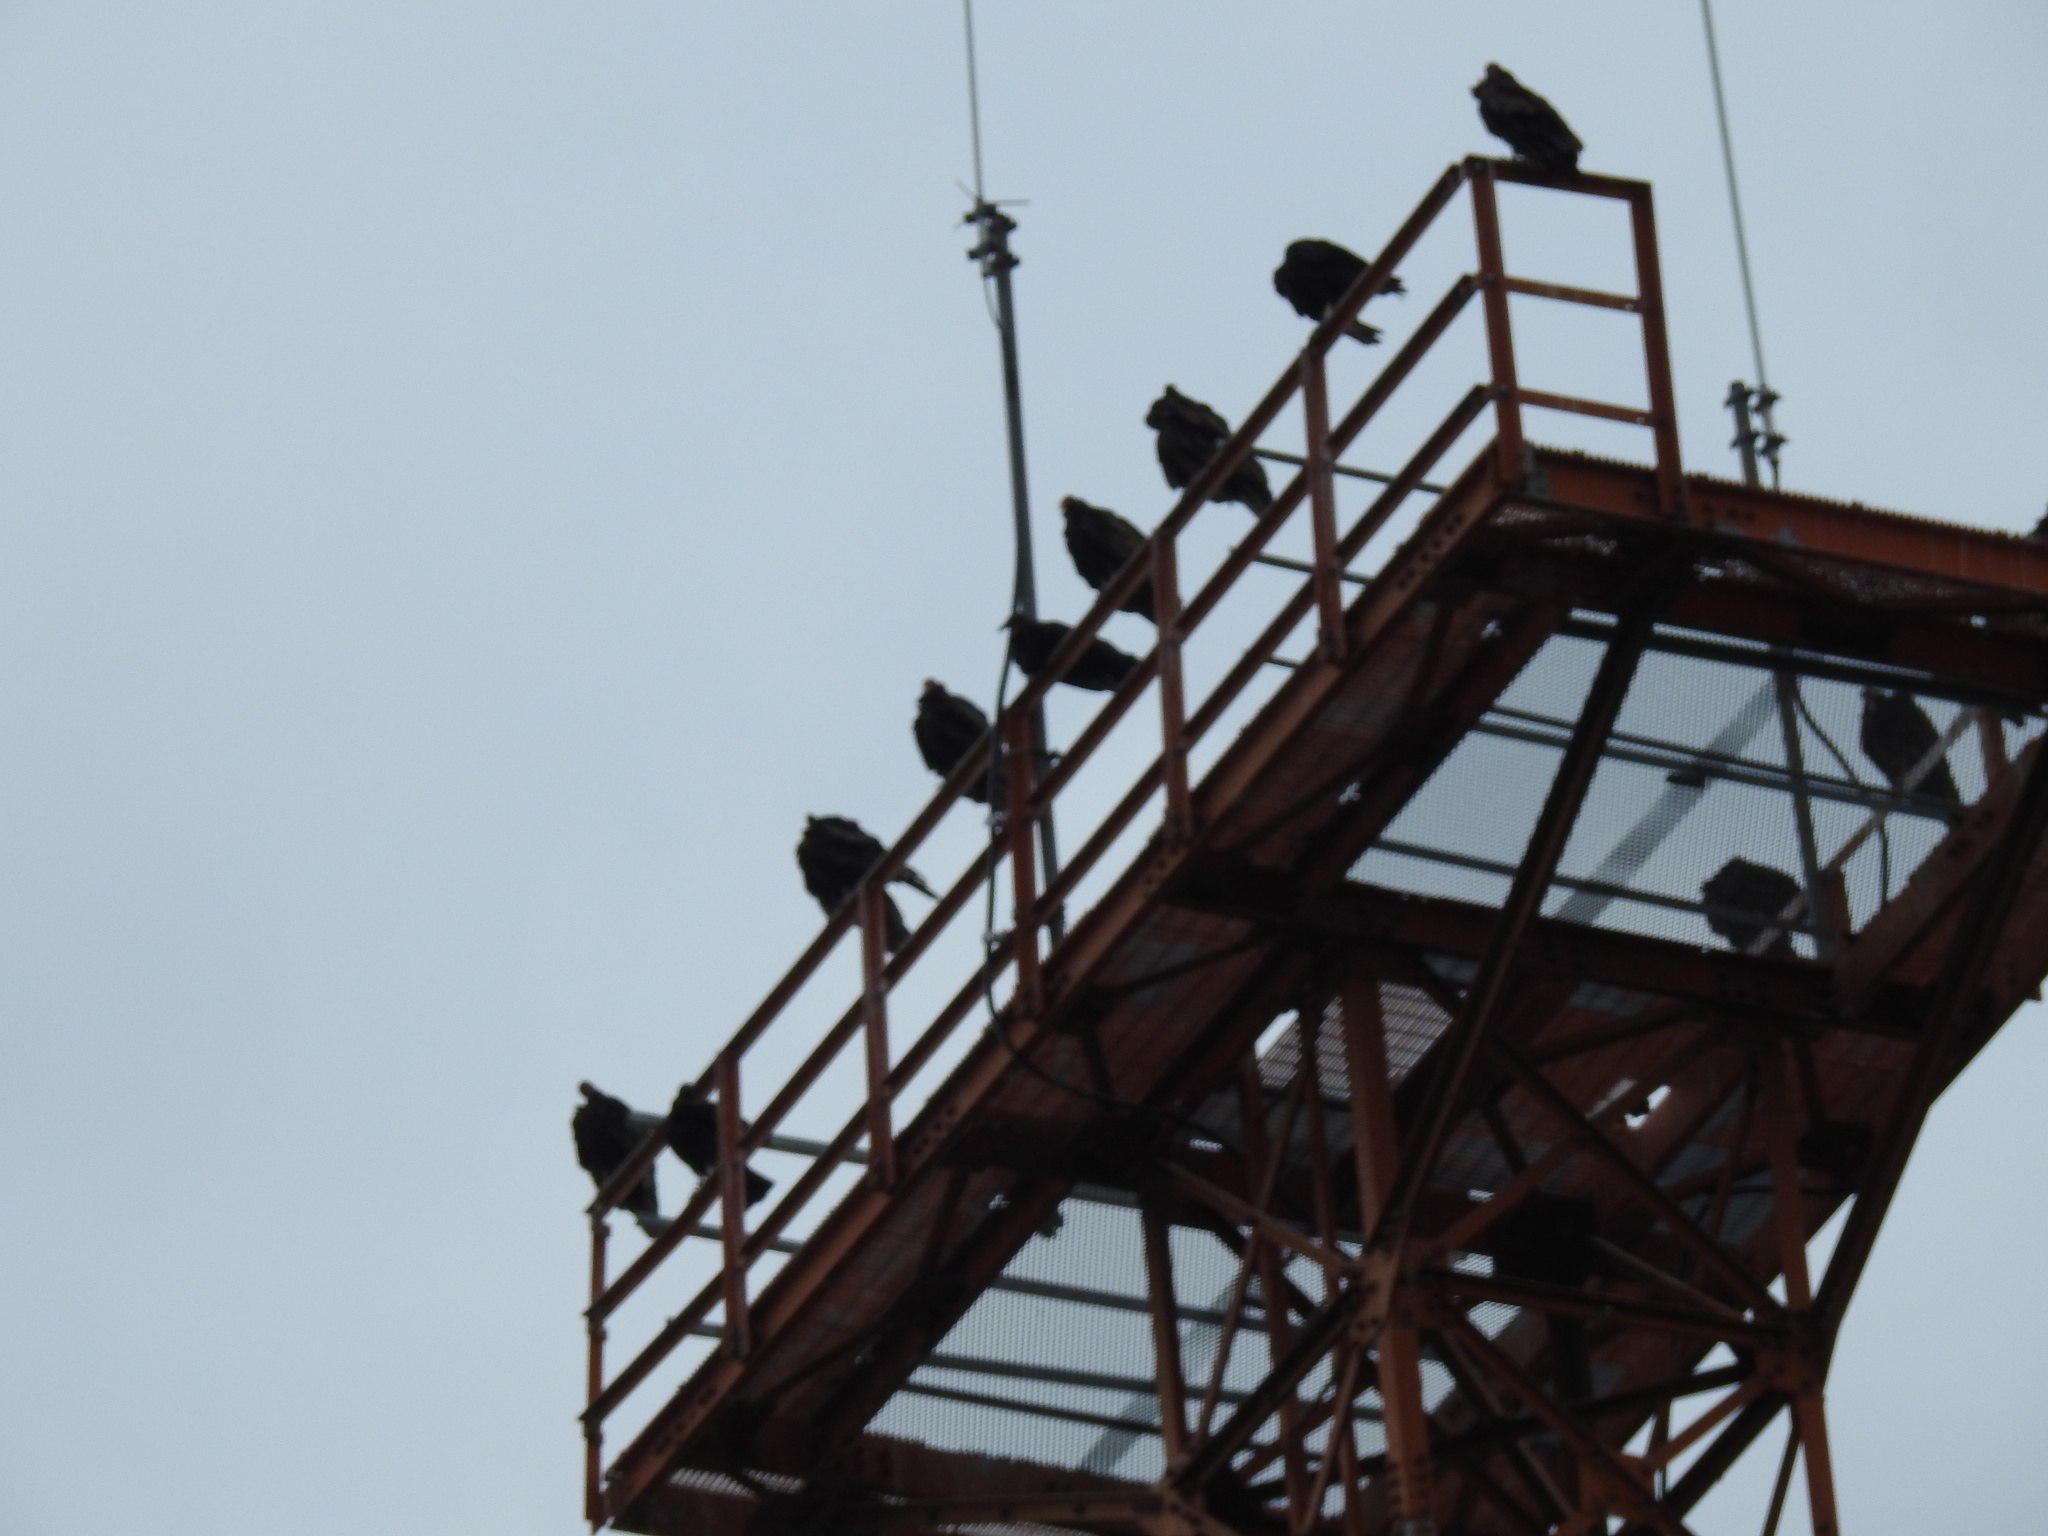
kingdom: Animalia
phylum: Chordata
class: Aves
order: Accipitriformes
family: Cathartidae
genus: Cathartes
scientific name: Cathartes aura
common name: Turkey vulture
